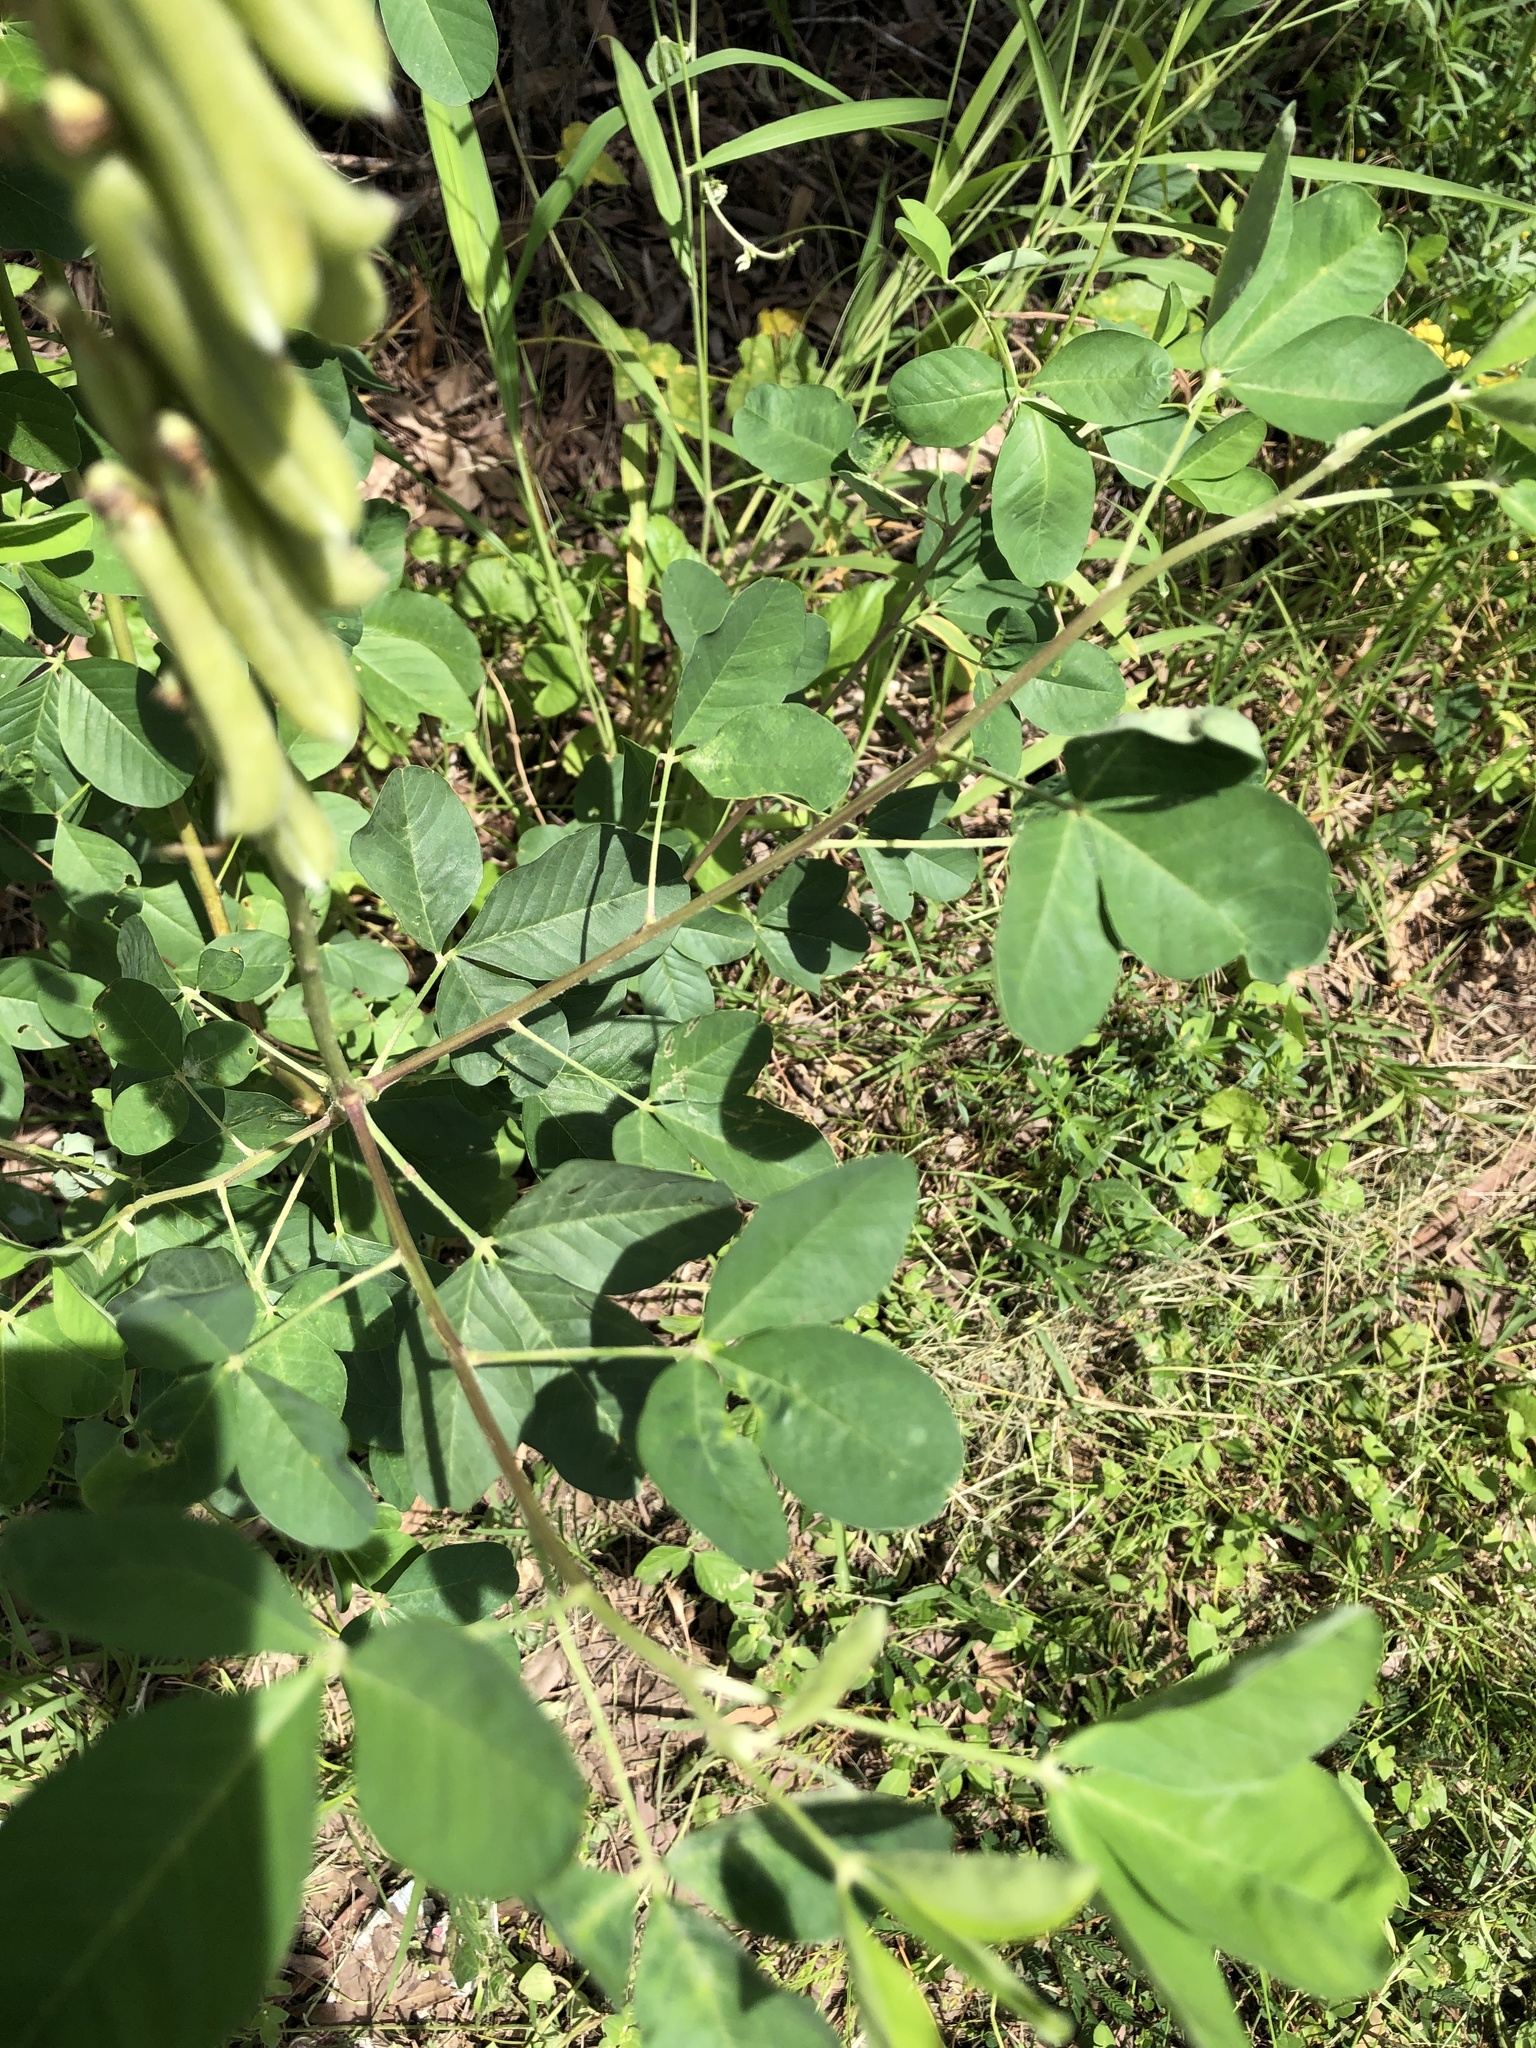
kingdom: Plantae
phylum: Tracheophyta
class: Magnoliopsida
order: Fabales
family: Fabaceae
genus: Crotalaria
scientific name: Crotalaria pallida
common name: Smooth rattlebox
